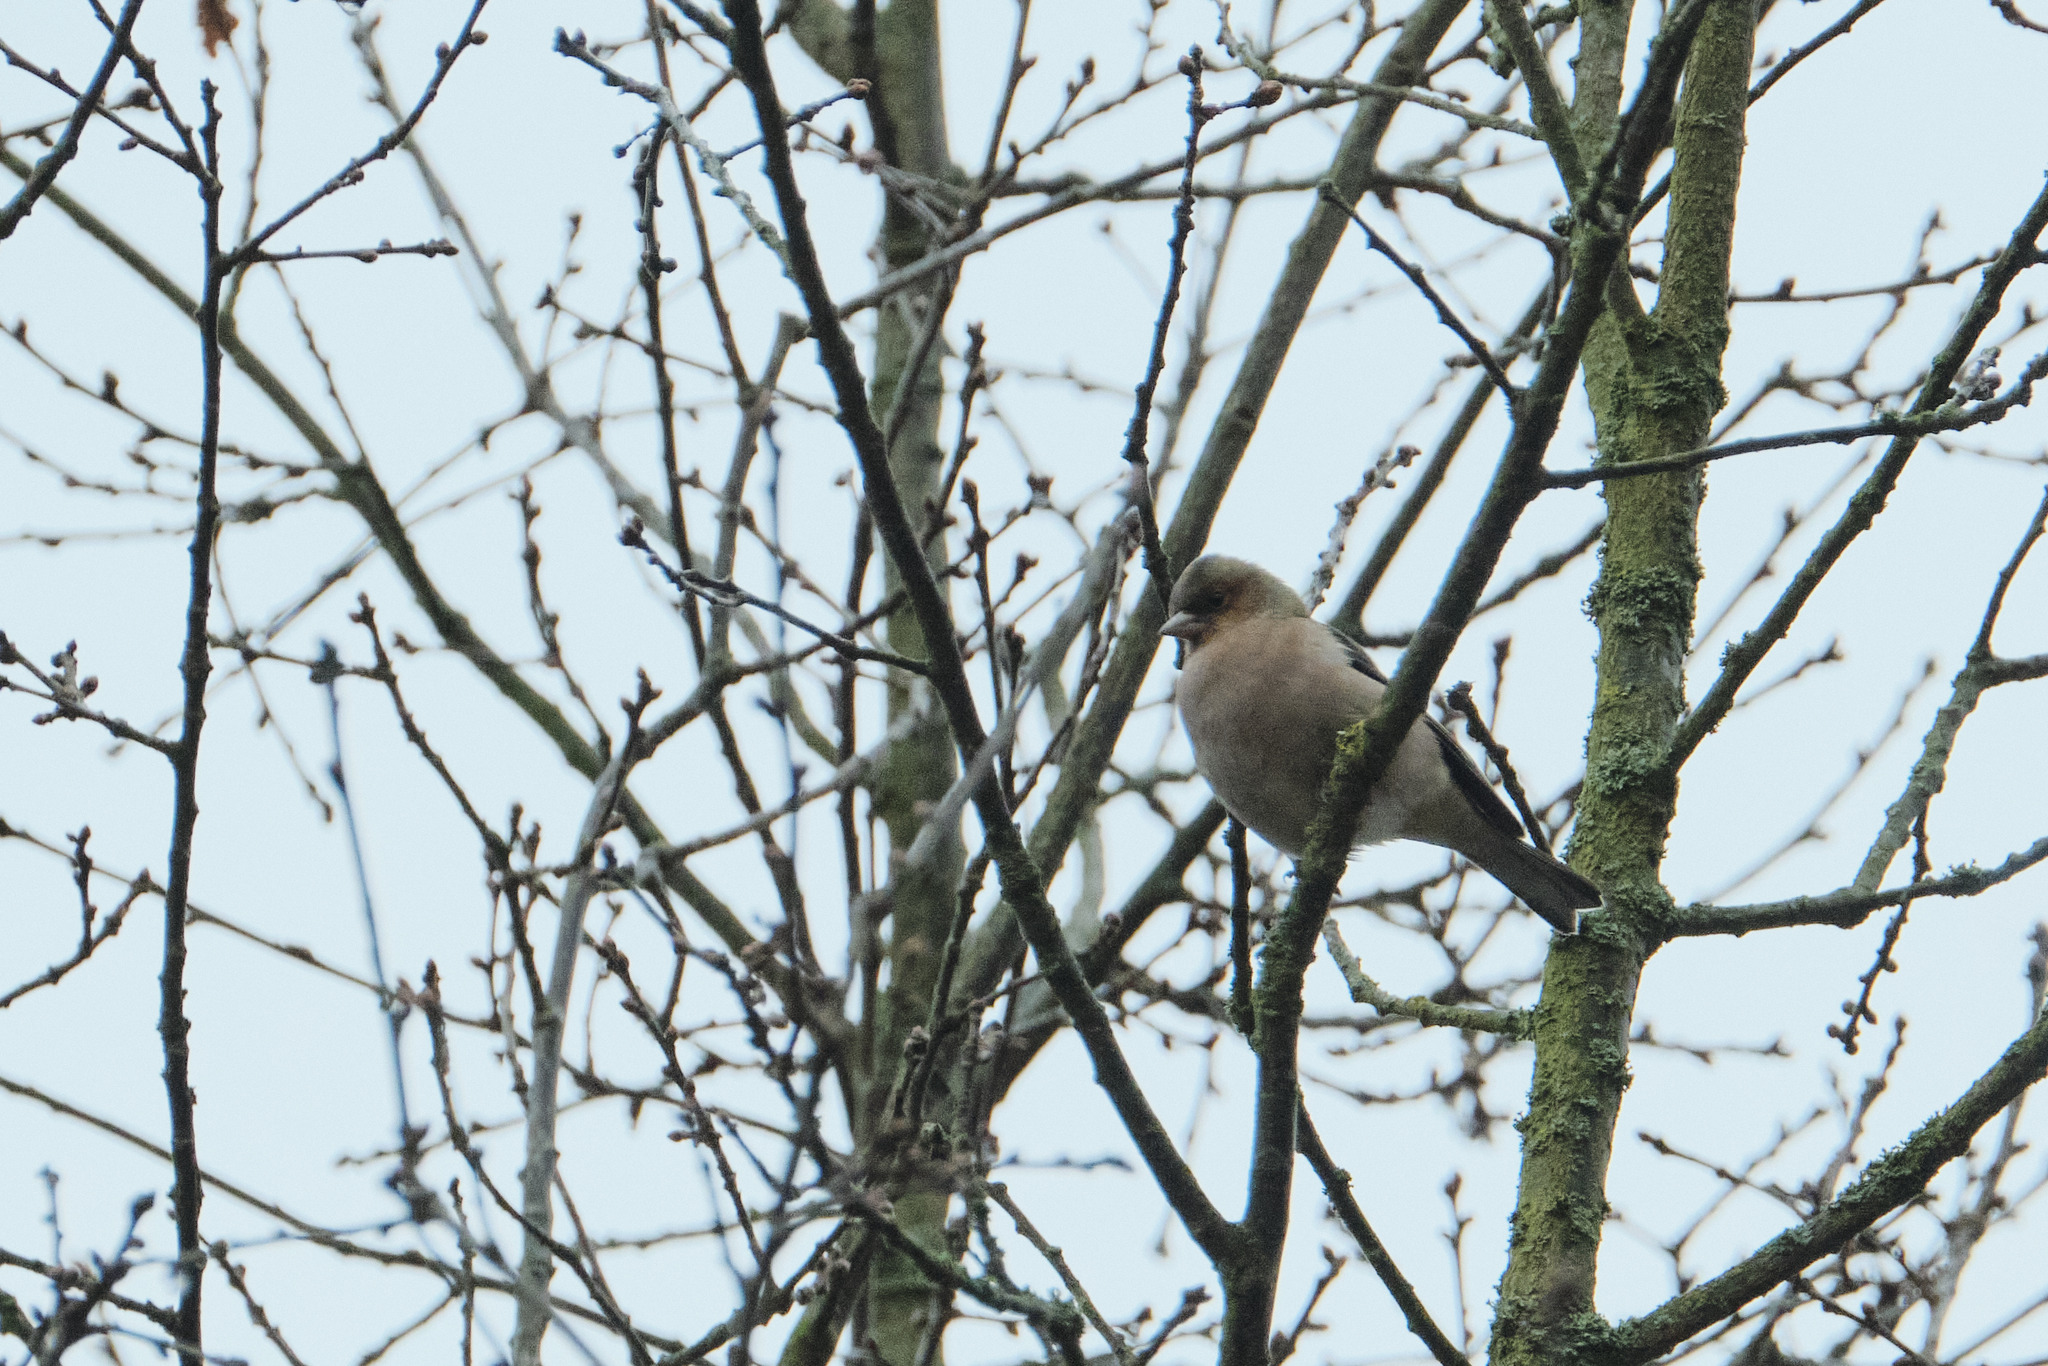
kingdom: Animalia
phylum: Chordata
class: Aves
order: Passeriformes
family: Fringillidae
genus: Fringilla
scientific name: Fringilla coelebs
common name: Common chaffinch
